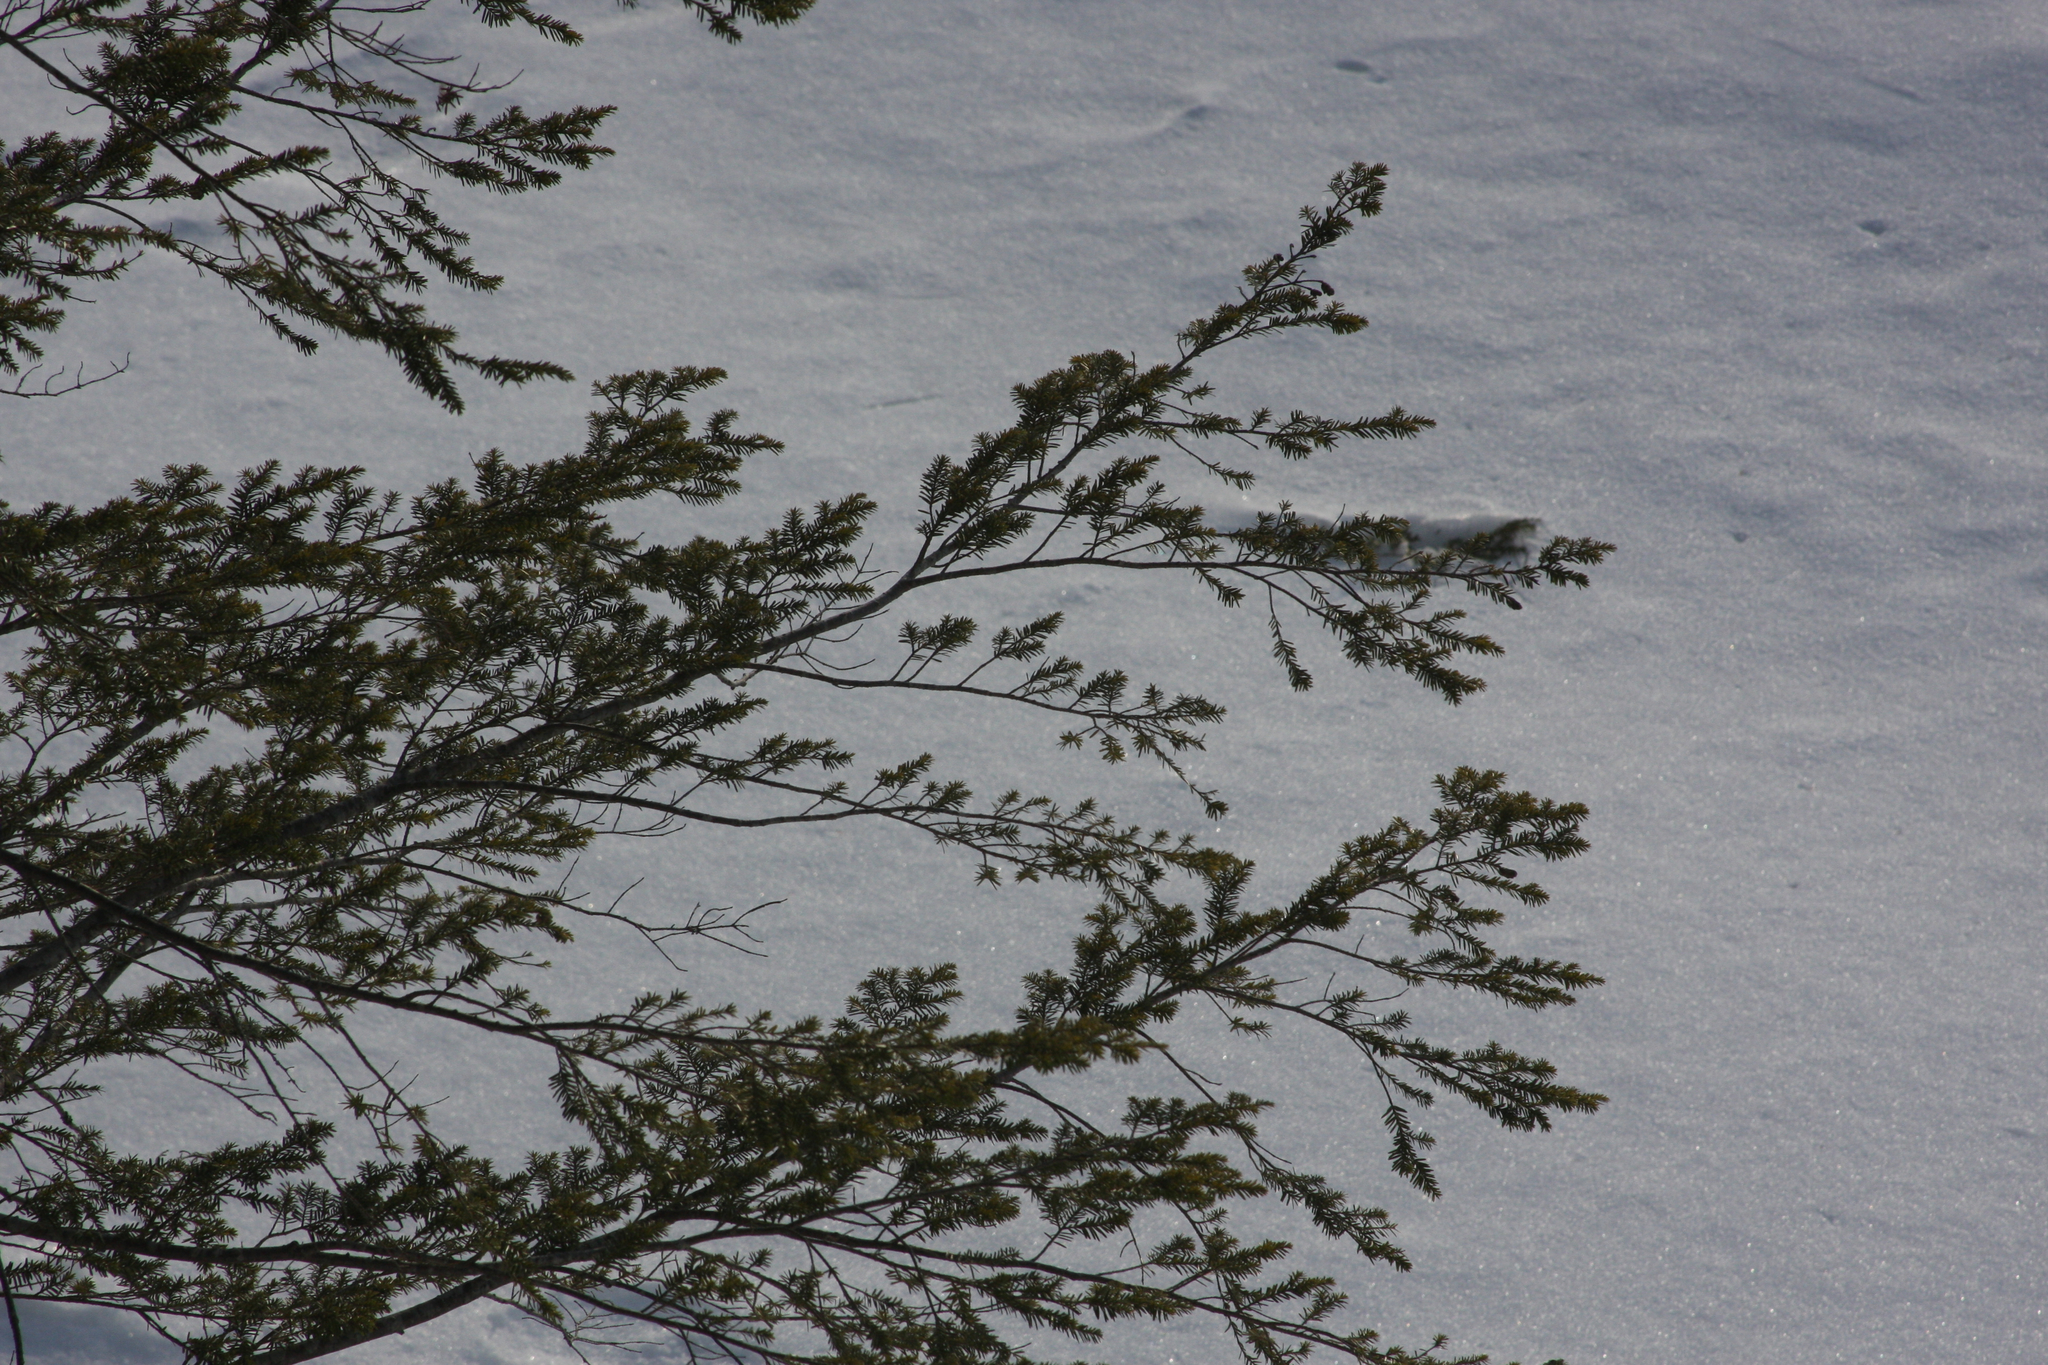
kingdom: Plantae
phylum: Tracheophyta
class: Pinopsida
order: Pinales
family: Pinaceae
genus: Tsuga
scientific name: Tsuga canadensis
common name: Eastern hemlock
